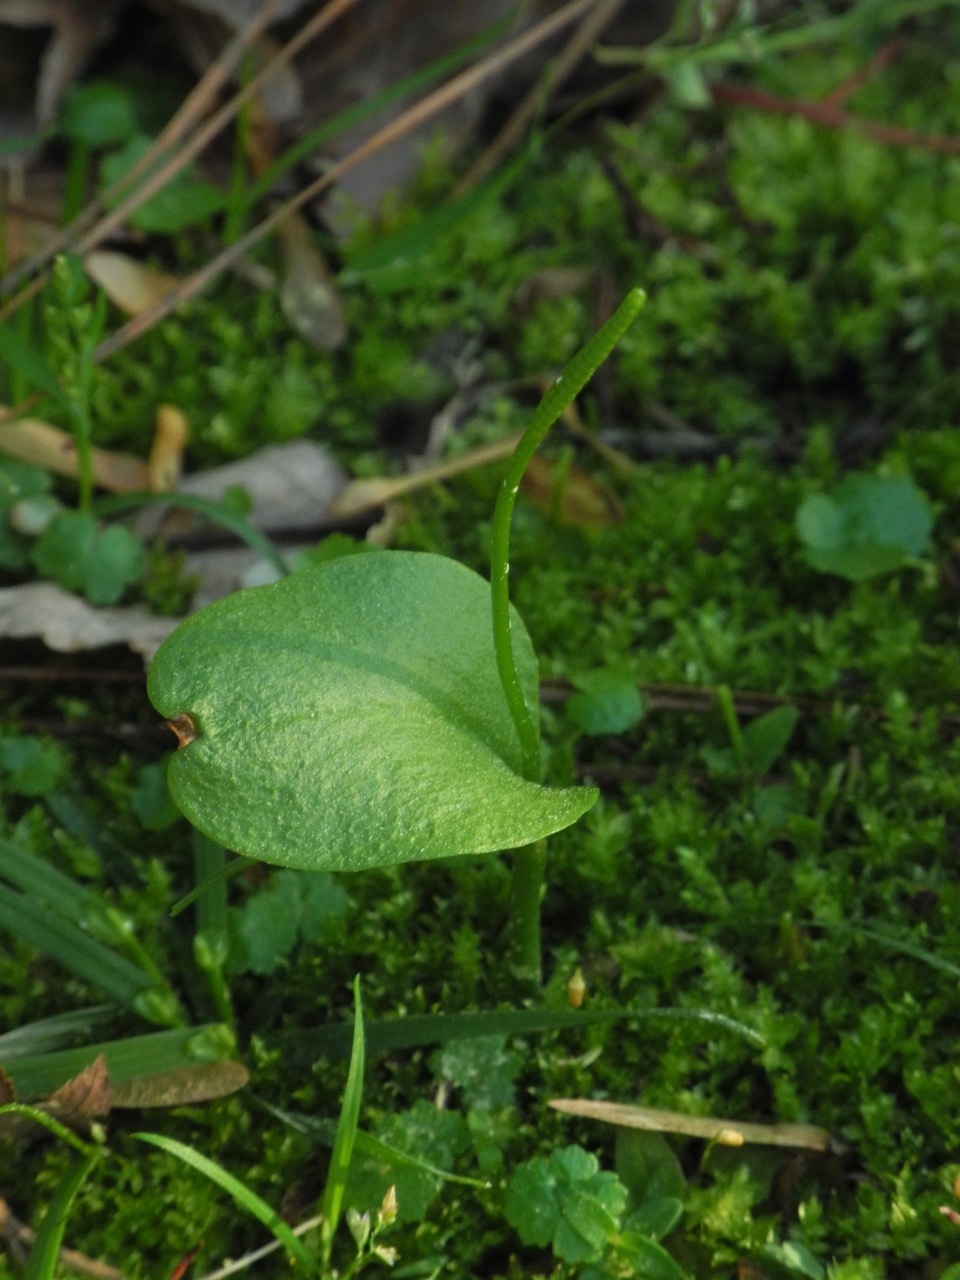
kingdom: Plantae
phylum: Tracheophyta
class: Polypodiopsida
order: Ophioglossales
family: Ophioglossaceae
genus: Ophioglossum
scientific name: Ophioglossum vulgatum
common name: Adder's-tongue
